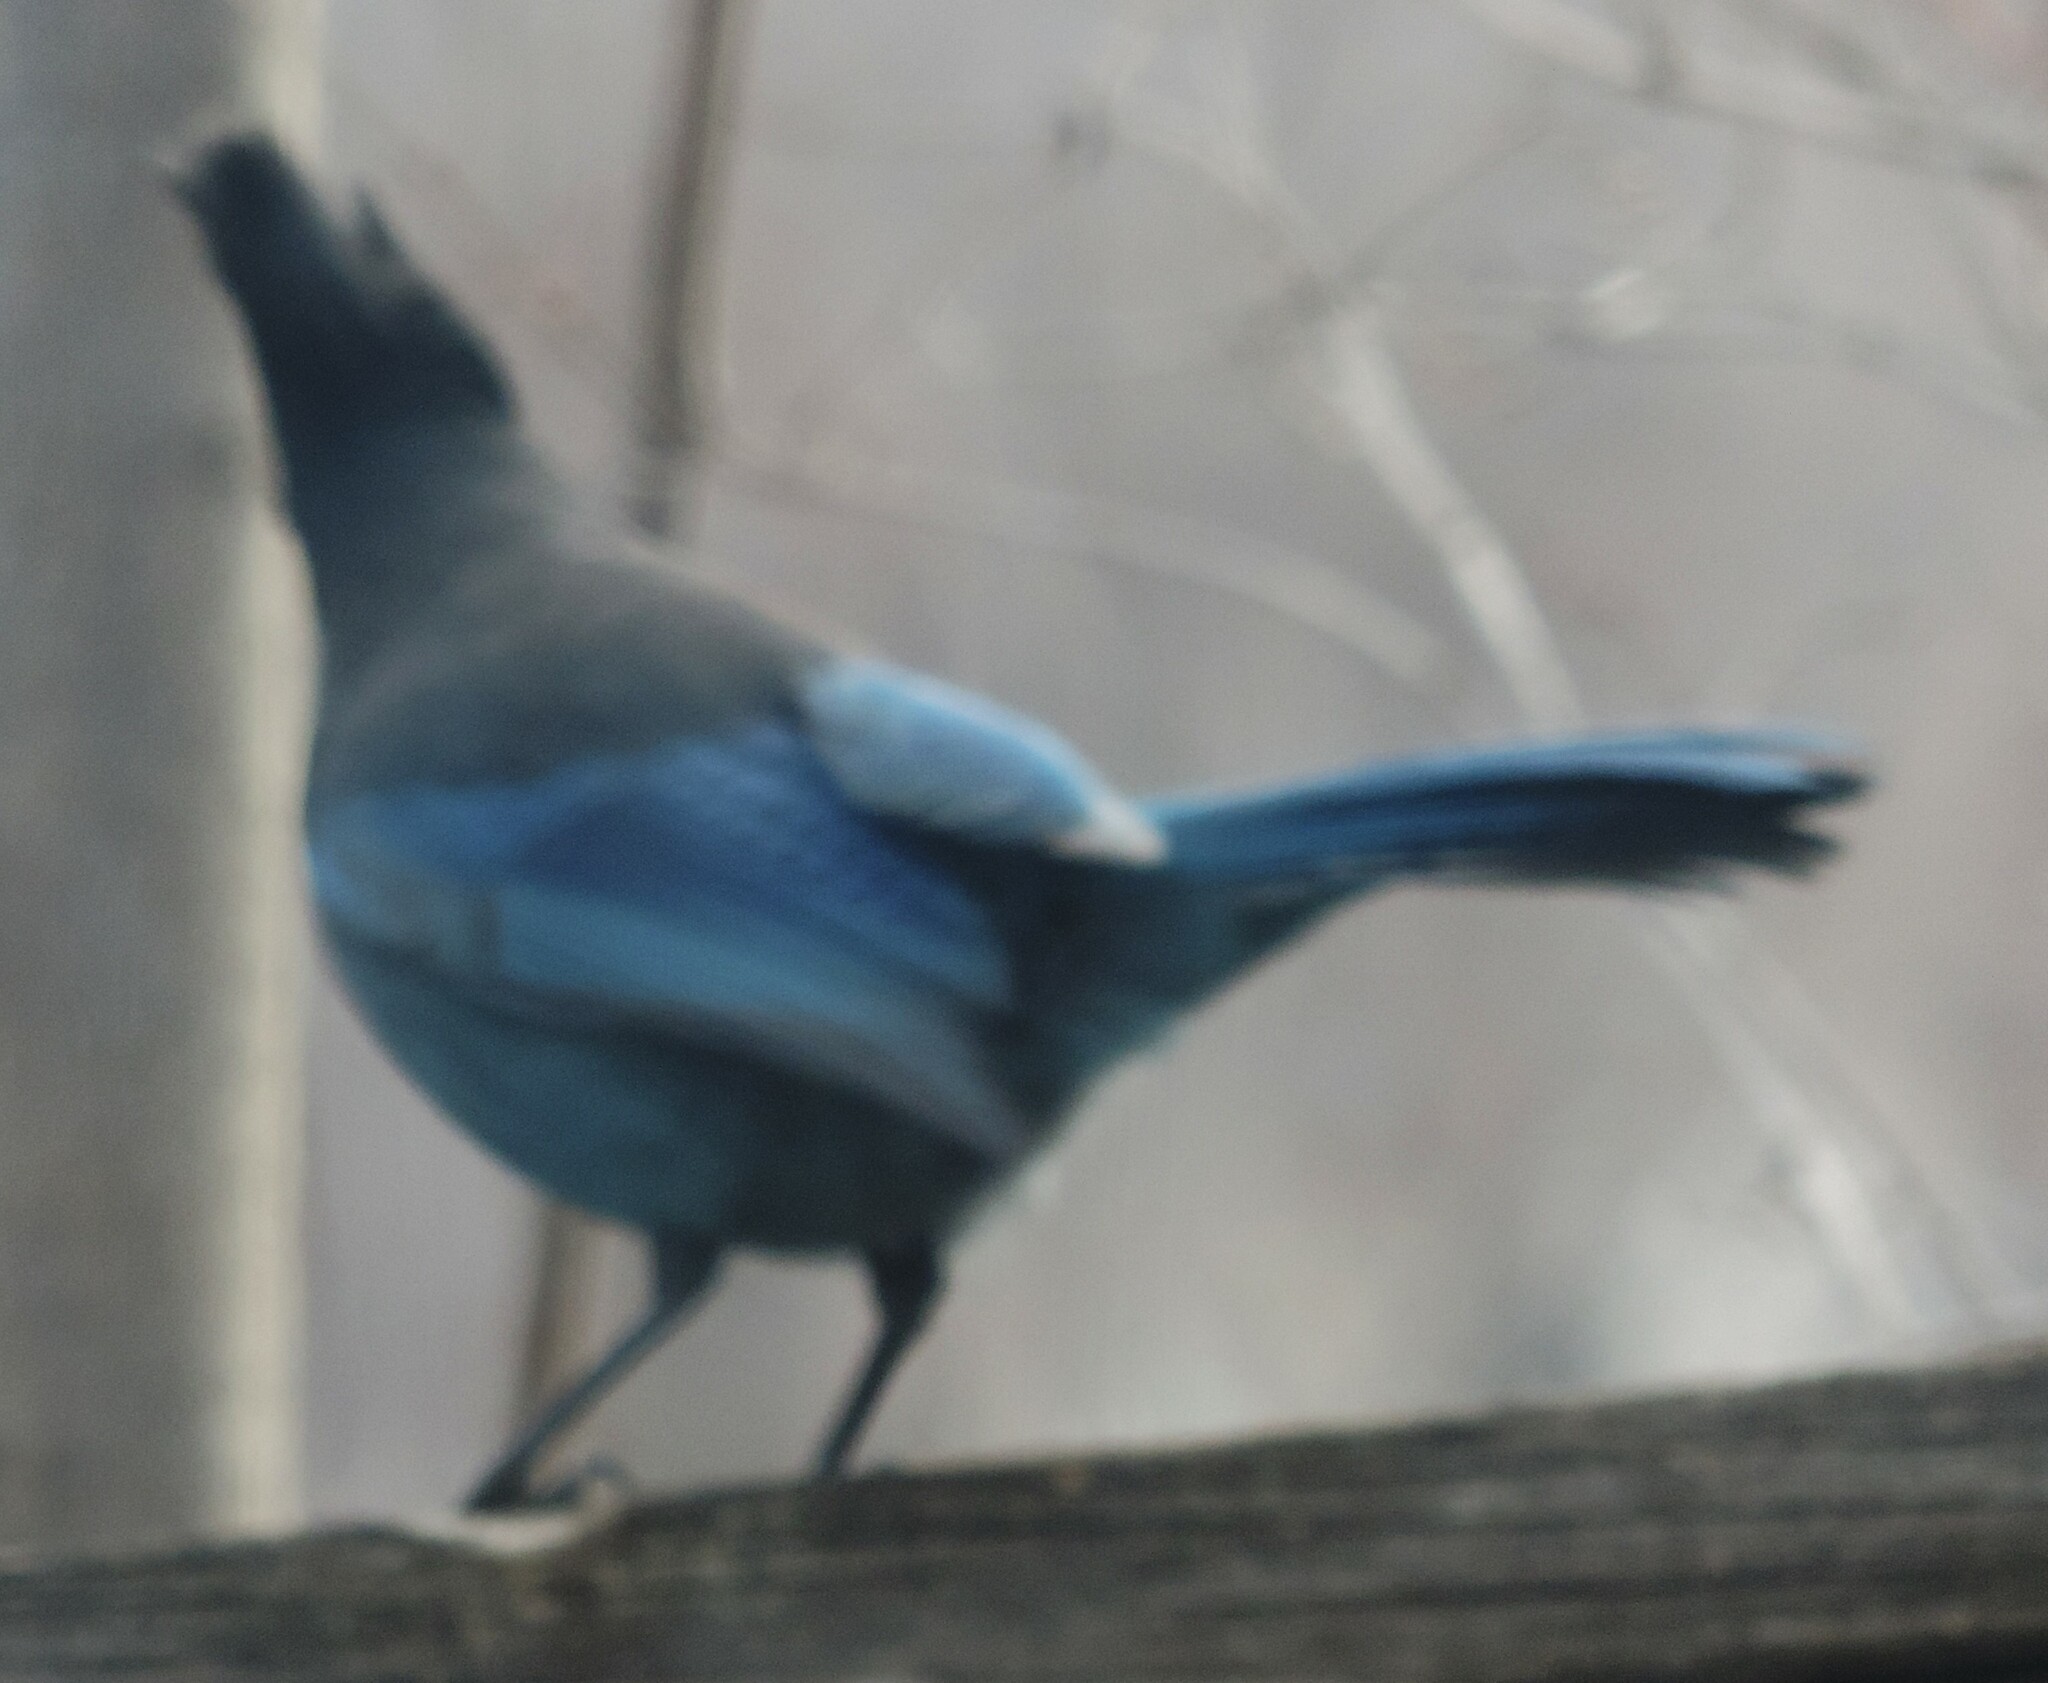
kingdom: Animalia
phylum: Chordata
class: Aves
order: Passeriformes
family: Corvidae
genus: Cyanocitta
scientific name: Cyanocitta stelleri
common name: Steller's jay
